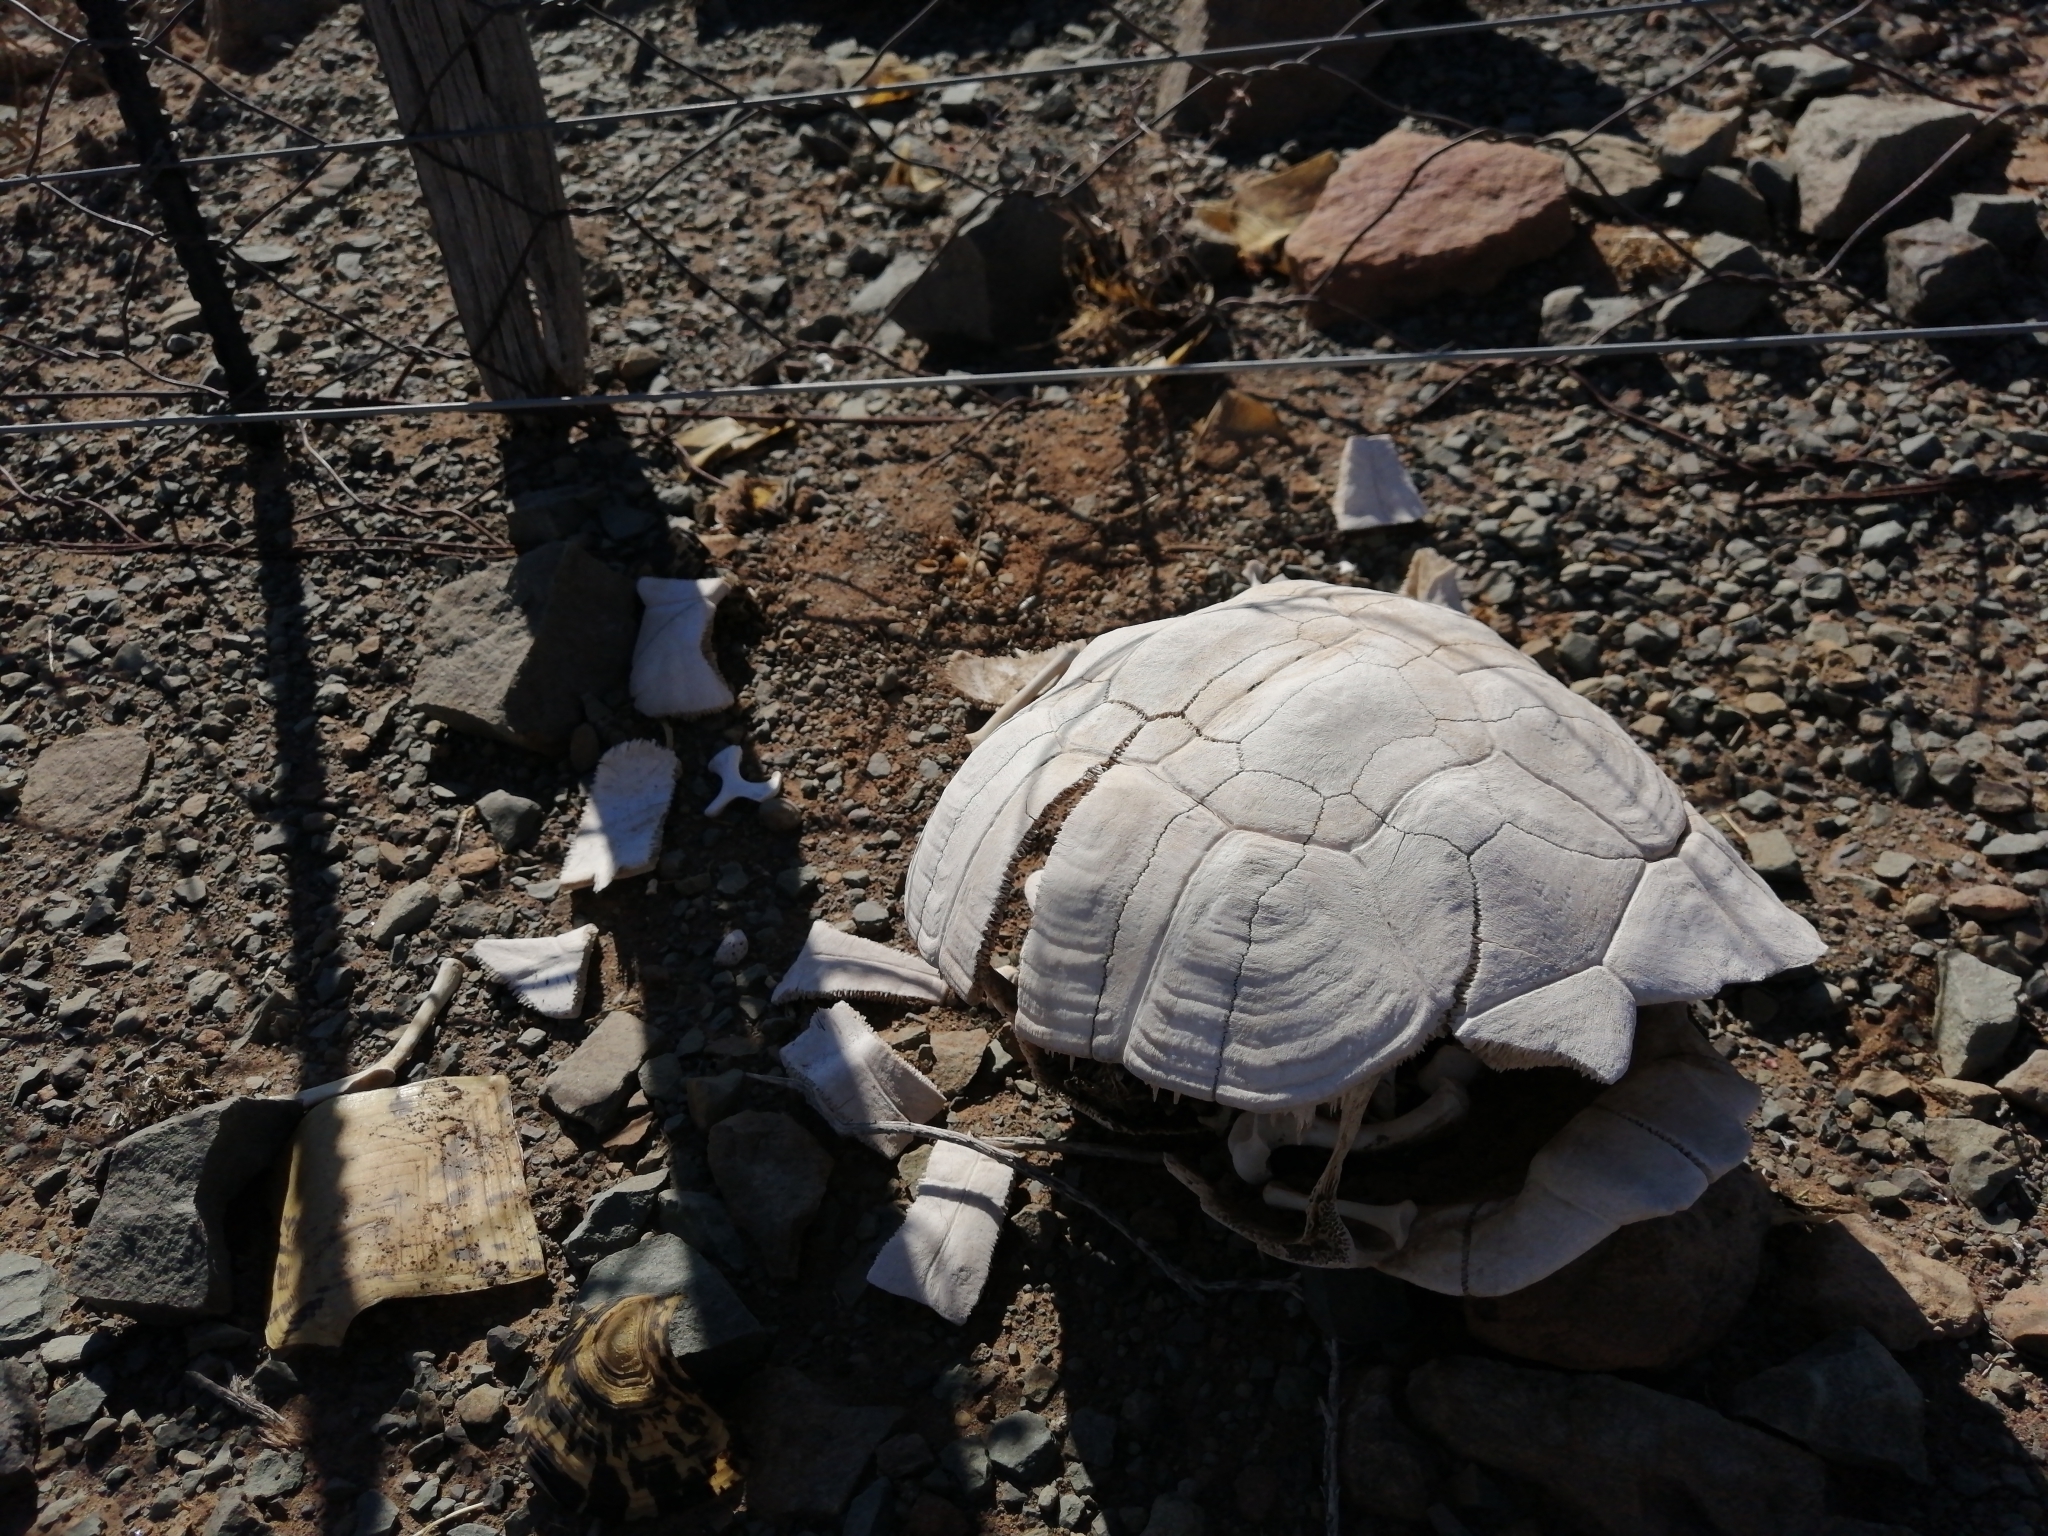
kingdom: Animalia
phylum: Chordata
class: Testudines
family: Testudinidae
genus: Stigmochelys
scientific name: Stigmochelys pardalis
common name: Leopard tortoise
